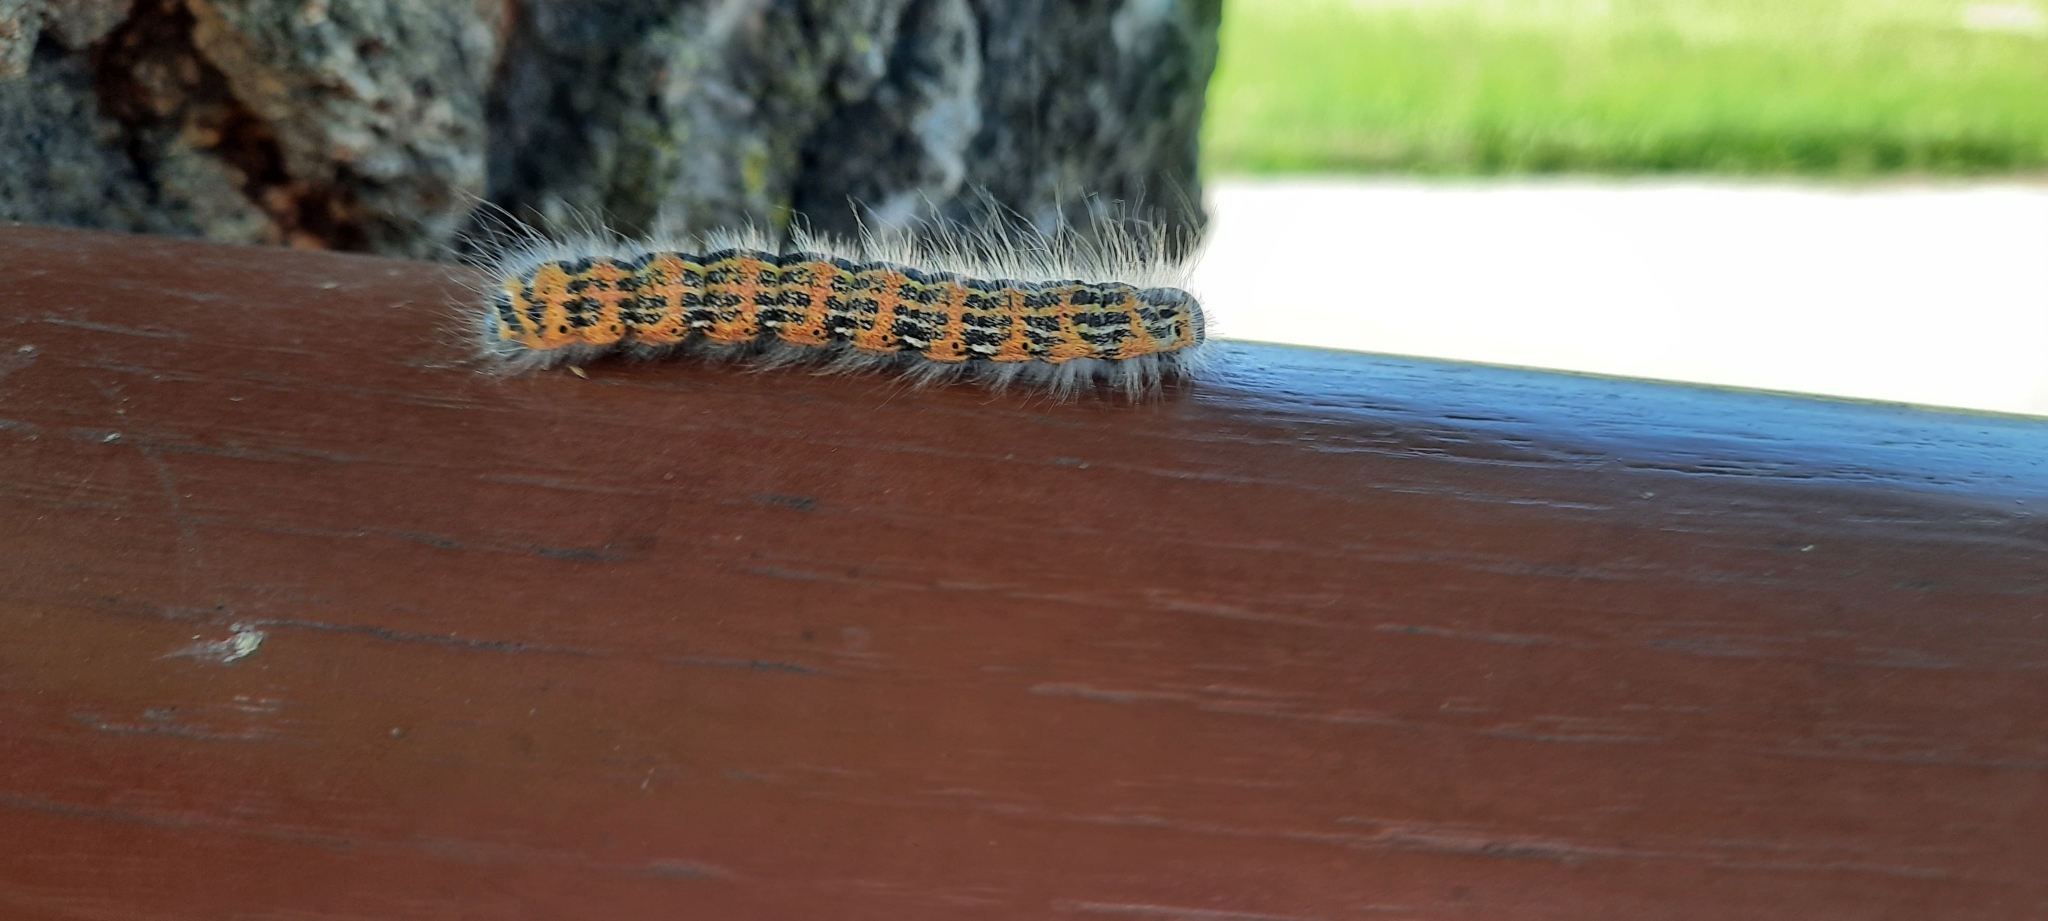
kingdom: Animalia
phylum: Arthropoda
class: Insecta
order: Lepidoptera
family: Notodontidae
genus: Phalera
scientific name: Phalera bucephala
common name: Buff-tip
